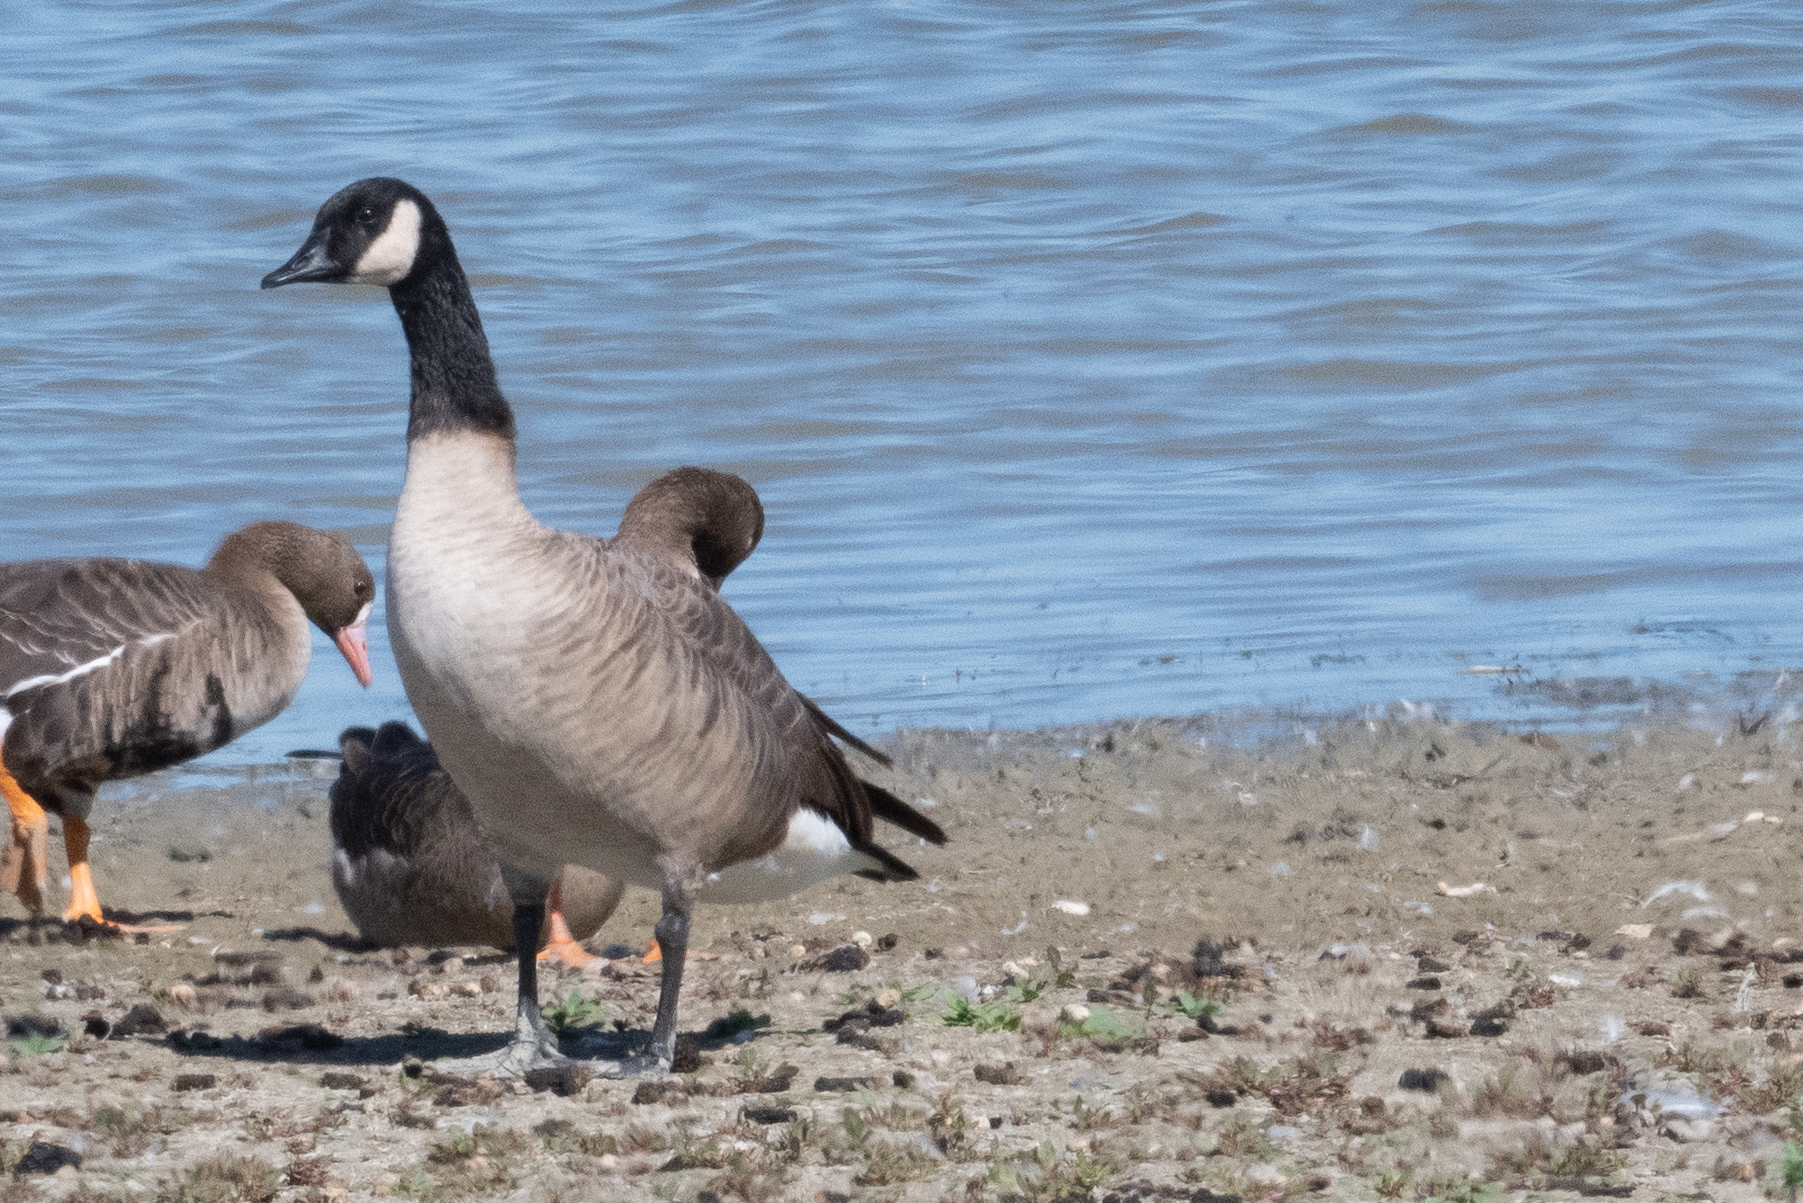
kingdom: Animalia
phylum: Chordata
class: Aves
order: Anseriformes
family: Anatidae
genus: Branta
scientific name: Branta canadensis
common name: Canada goose
